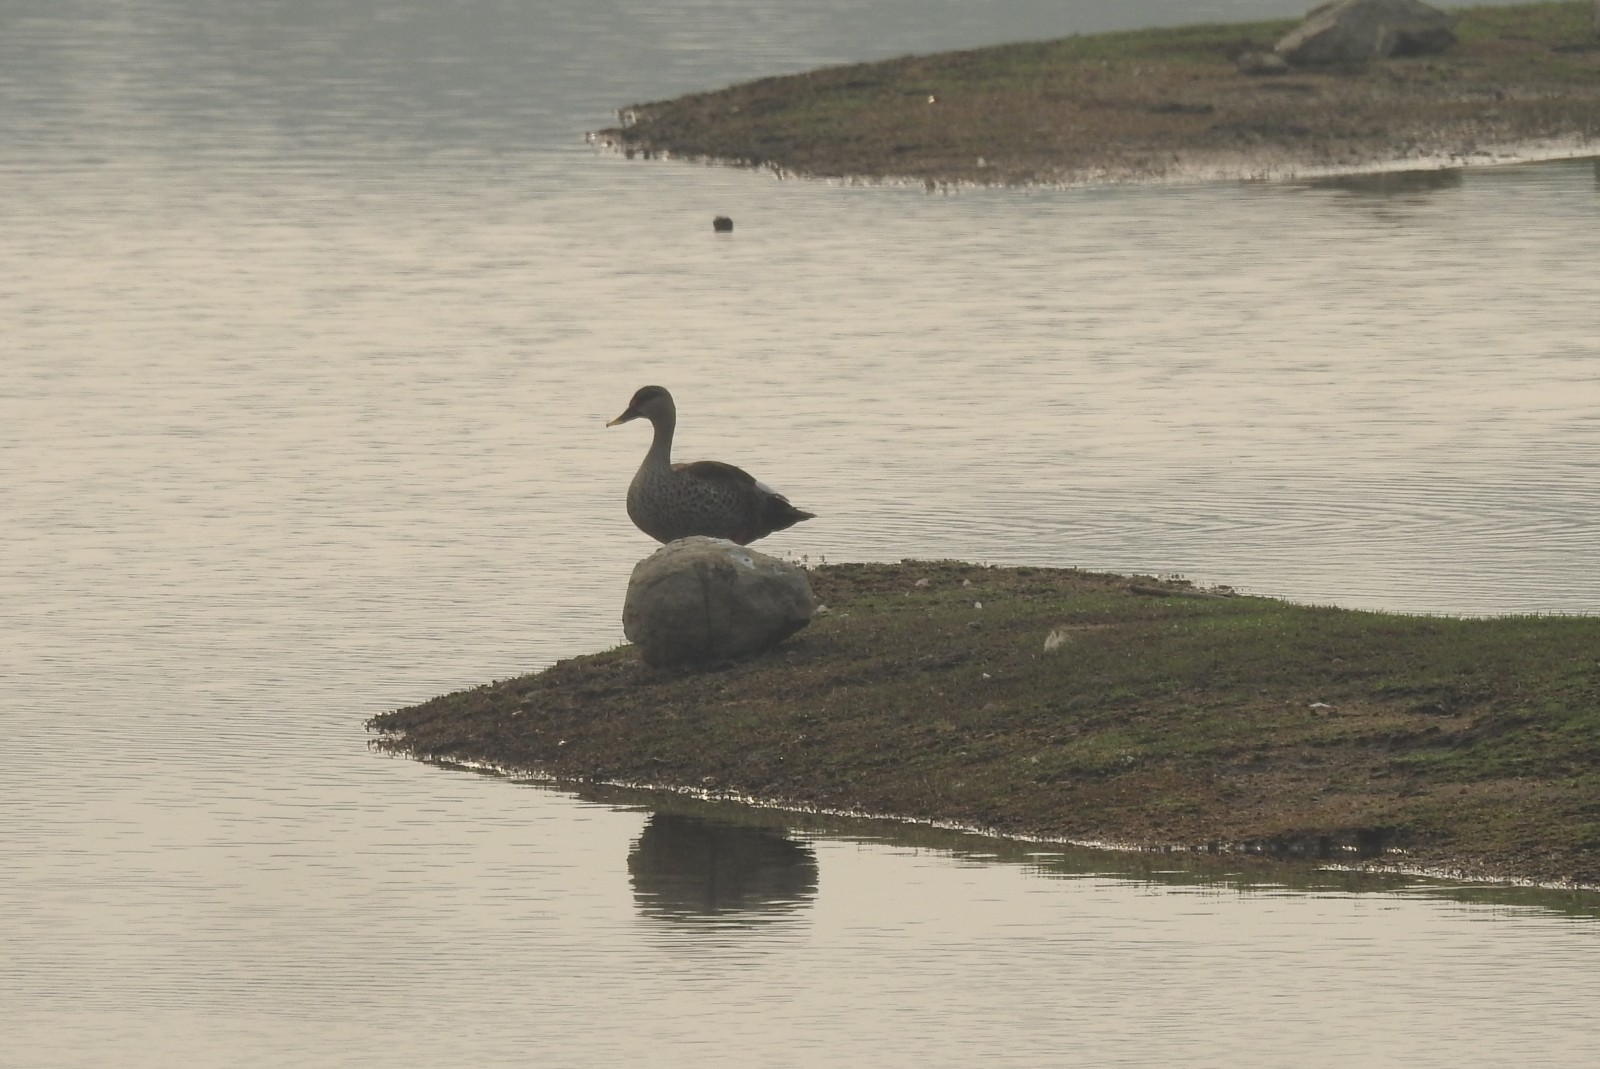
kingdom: Animalia
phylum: Chordata
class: Aves
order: Anseriformes
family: Anatidae
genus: Anas
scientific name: Anas poecilorhyncha
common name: Indian spot-billed duck
